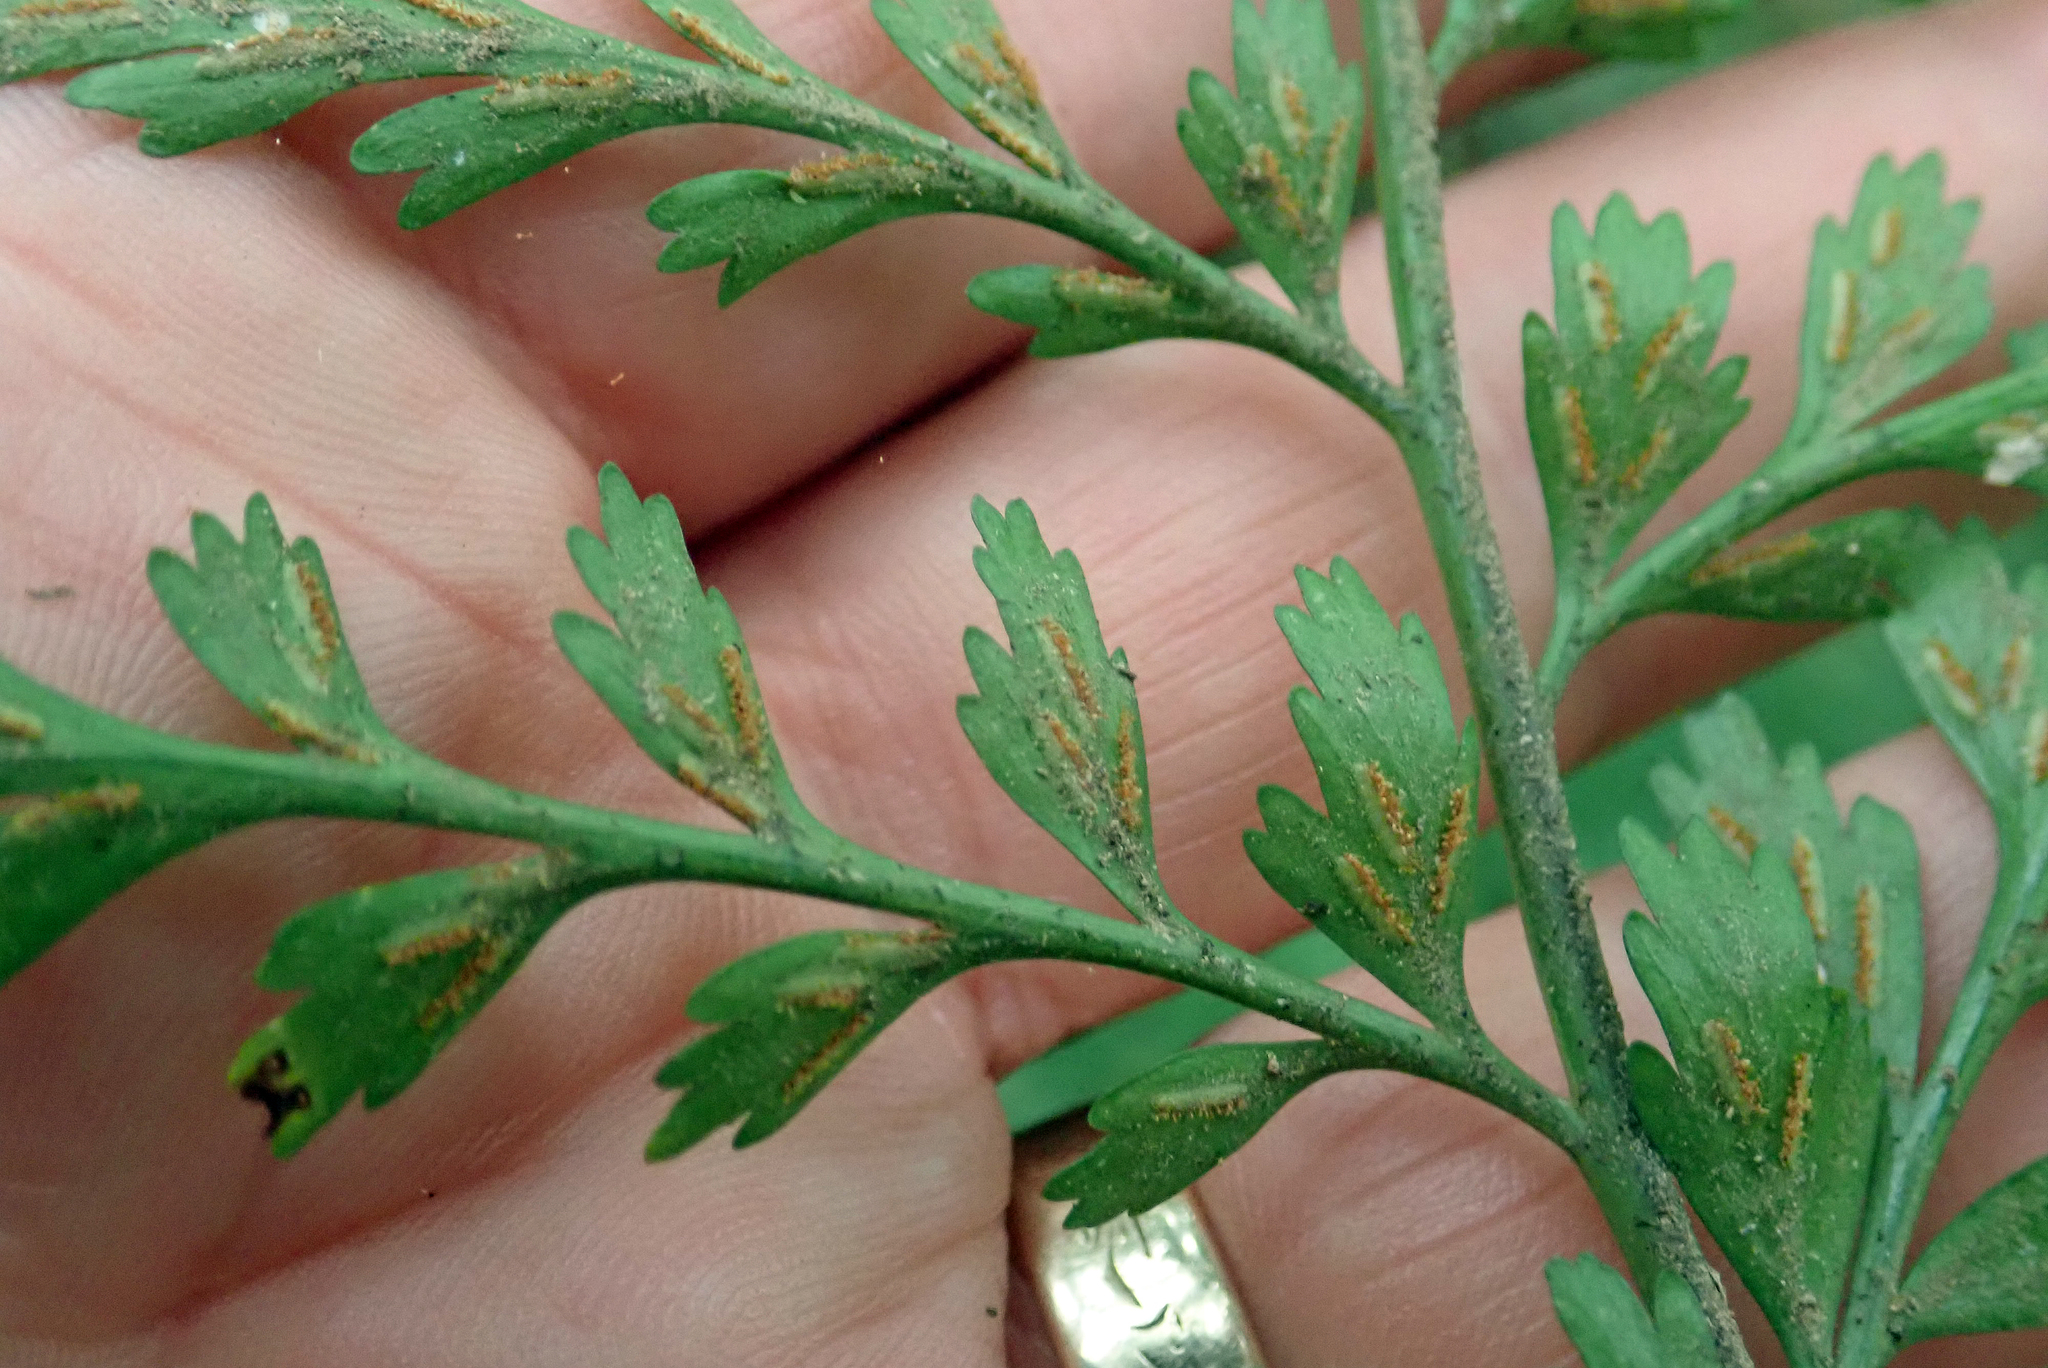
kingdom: Plantae
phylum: Tracheophyta
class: Polypodiopsida
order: Polypodiales
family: Aspleniaceae
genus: Asplenium
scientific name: Asplenium lamprophyllum
